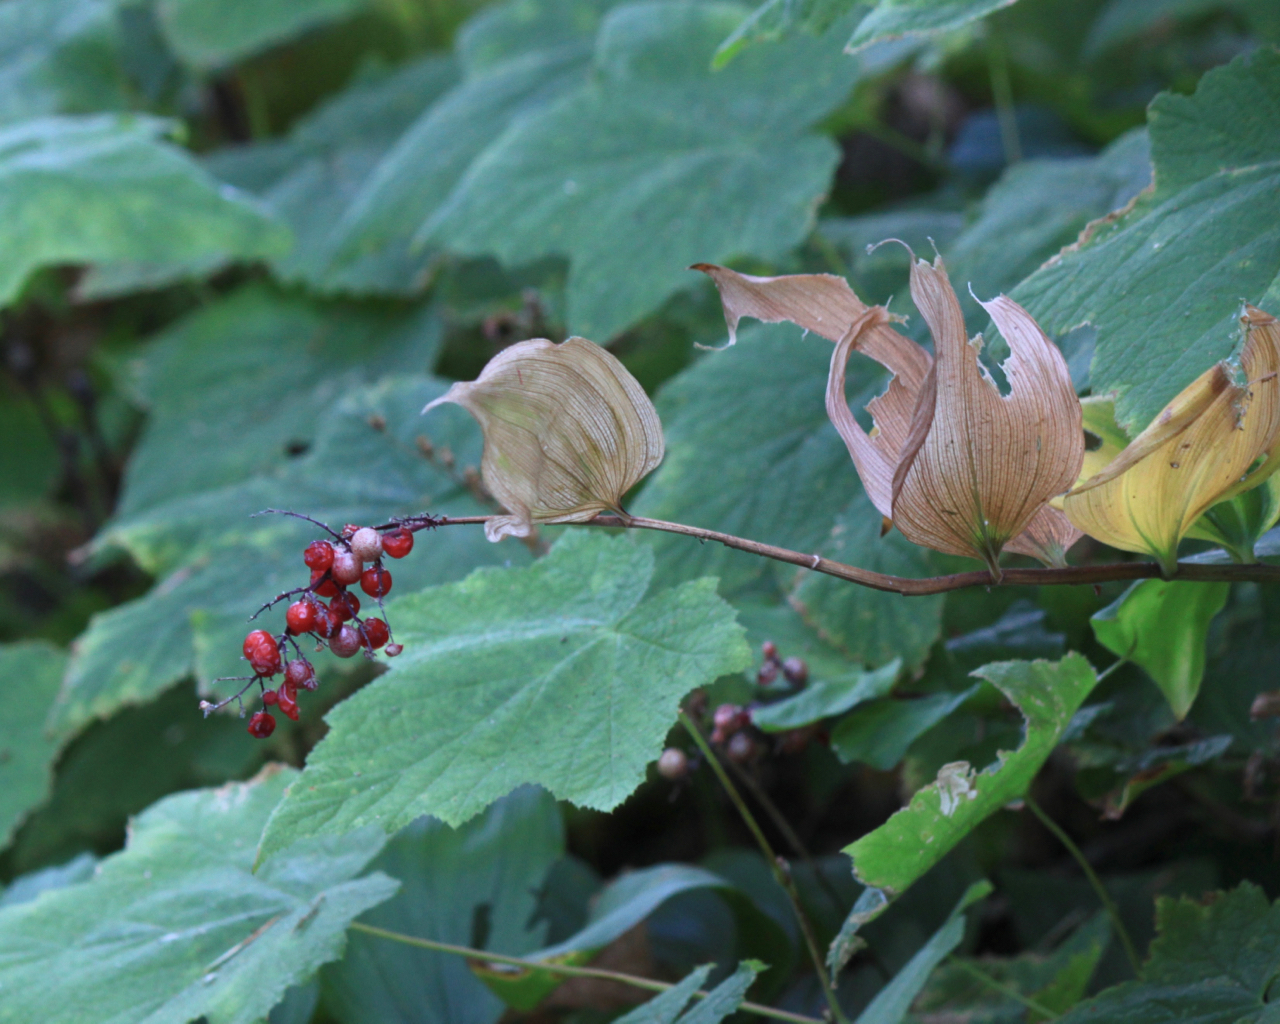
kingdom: Plantae
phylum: Tracheophyta
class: Liliopsida
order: Asparagales
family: Asparagaceae
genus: Maianthemum
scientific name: Maianthemum racemosum
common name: False spikenard
